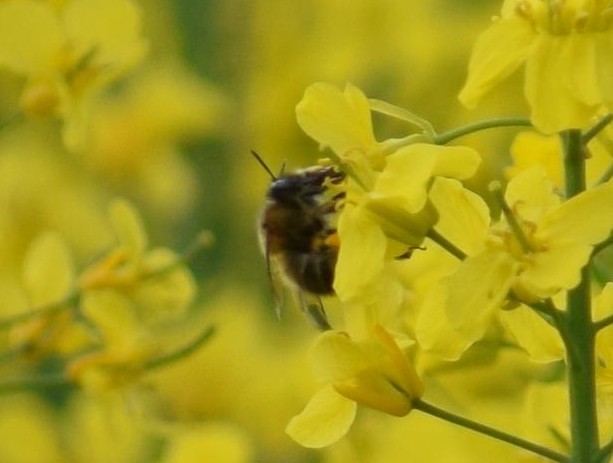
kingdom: Animalia
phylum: Arthropoda
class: Insecta
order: Hymenoptera
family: Apidae
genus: Anthophora
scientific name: Anthophora
